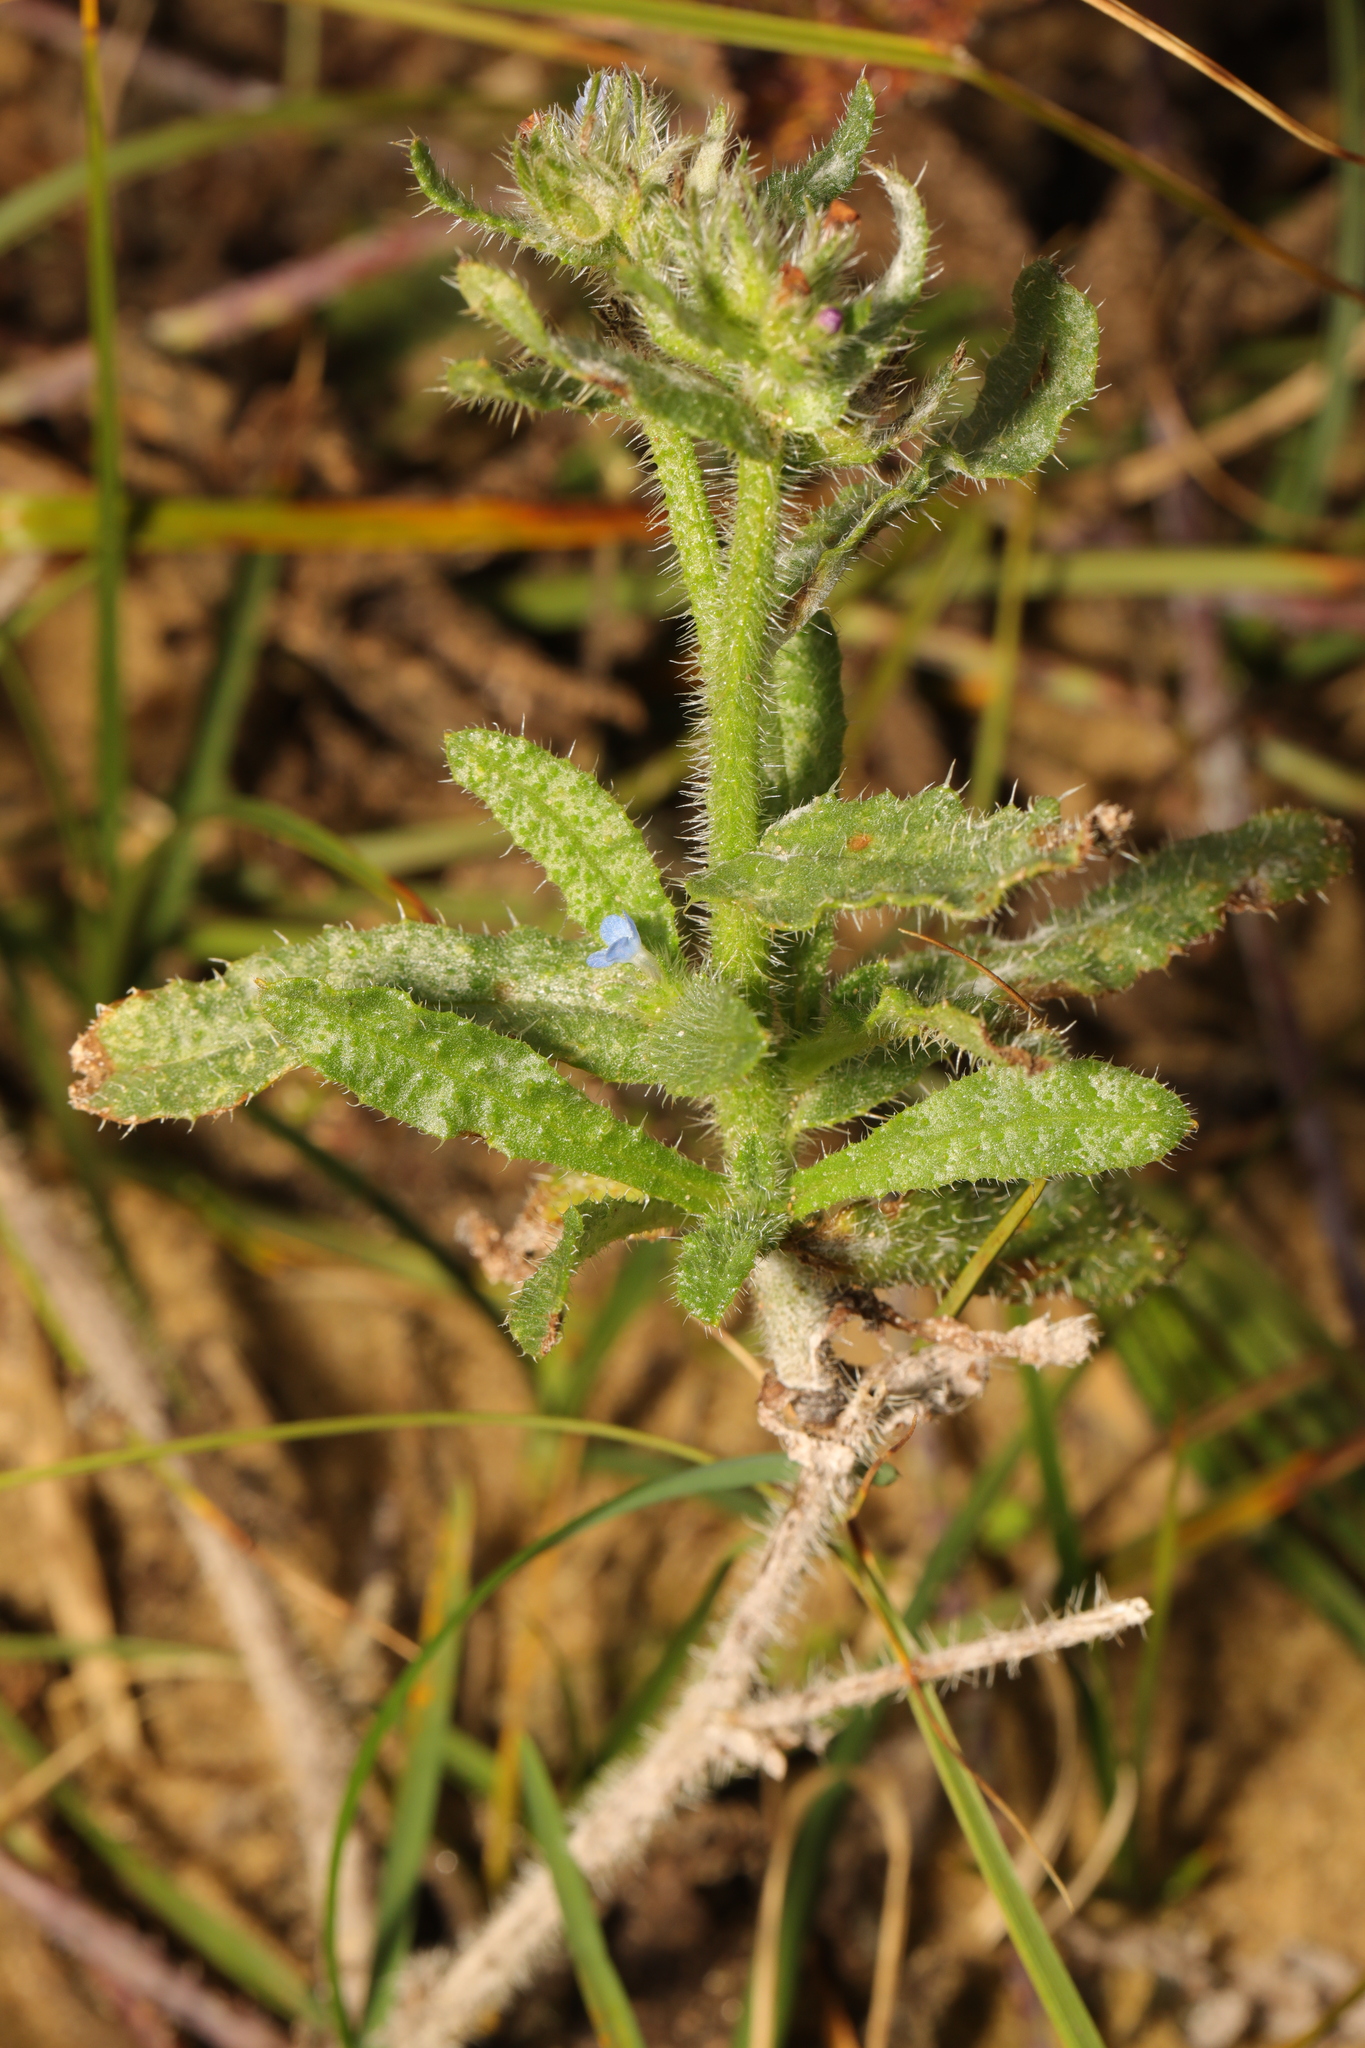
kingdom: Plantae
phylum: Tracheophyta
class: Magnoliopsida
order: Boraginales
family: Boraginaceae
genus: Lycopsis
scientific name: Lycopsis arvensis
